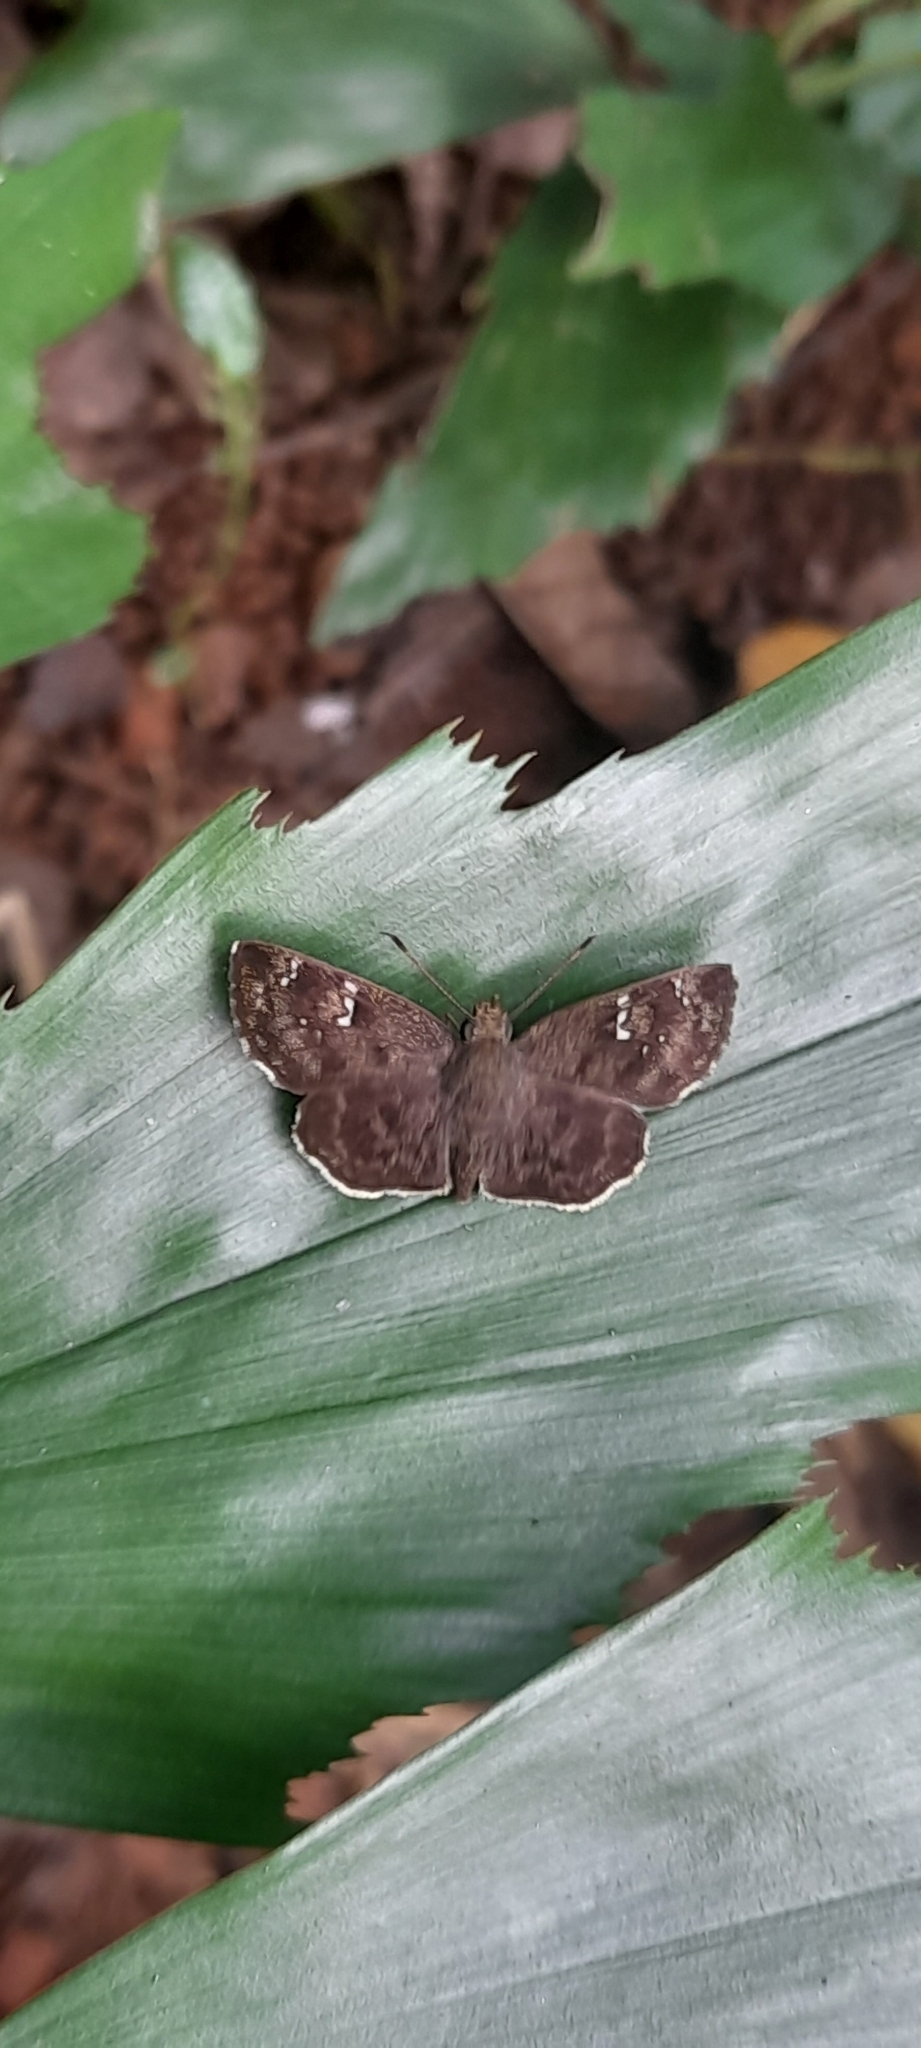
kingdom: Animalia
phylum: Arthropoda
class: Insecta
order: Lepidoptera
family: Hesperiidae
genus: Sarangesa
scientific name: Sarangesa dasahara
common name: Common small flat
